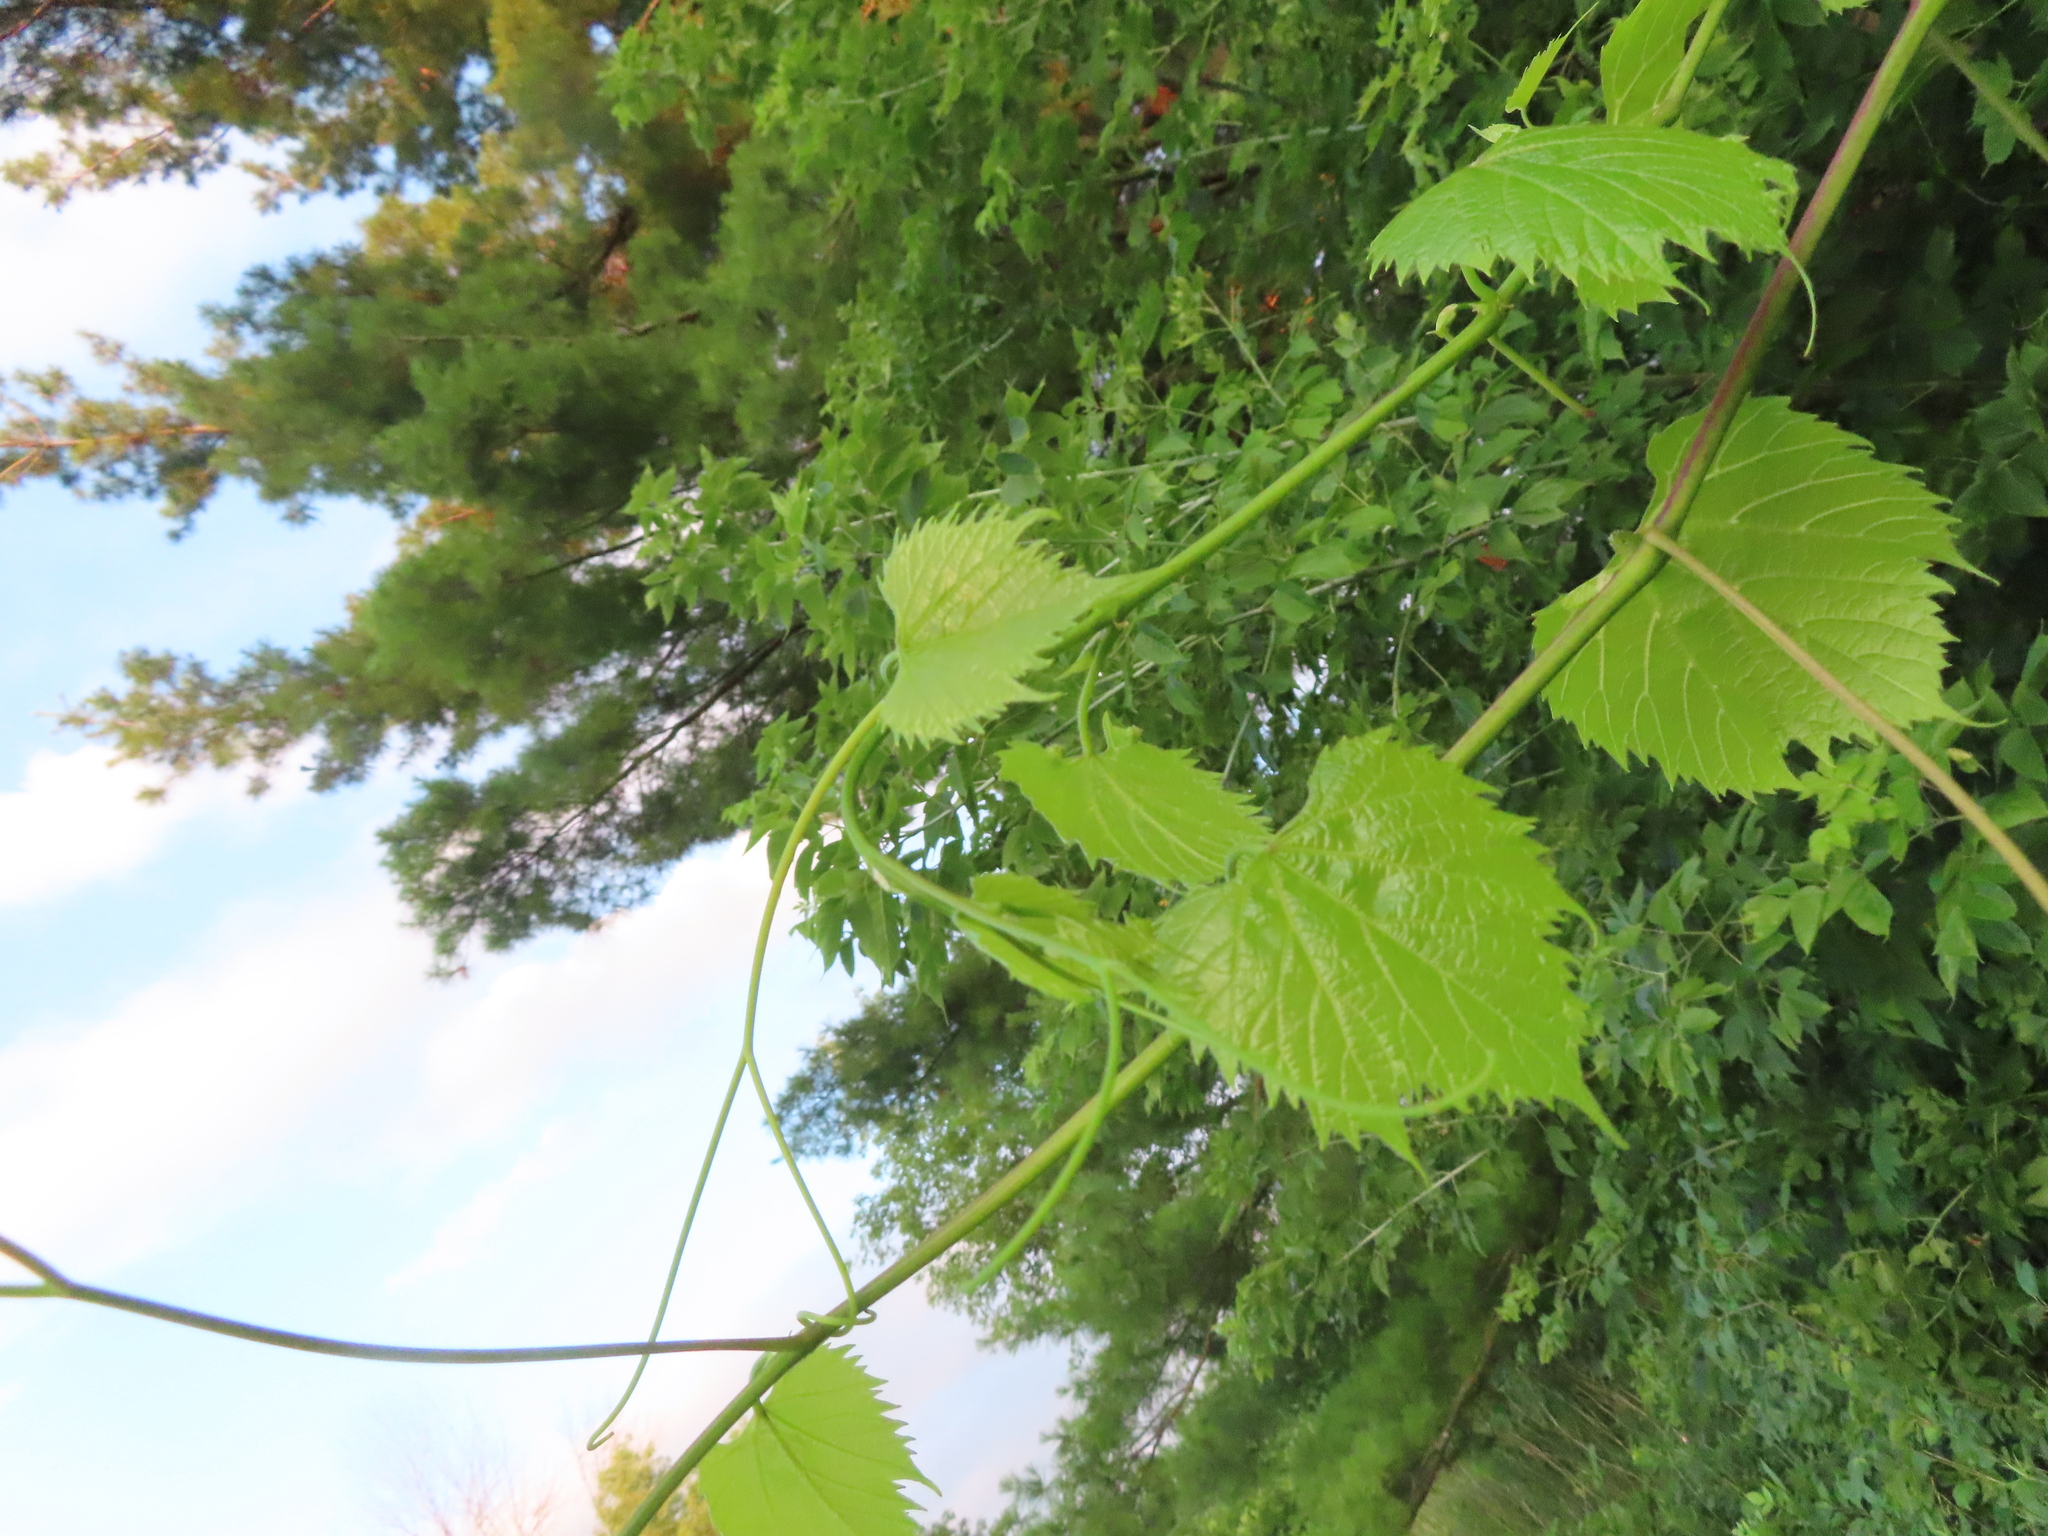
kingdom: Plantae
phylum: Tracheophyta
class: Magnoliopsida
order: Vitales
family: Vitaceae
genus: Vitis
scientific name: Vitis riparia
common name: Frost grape
